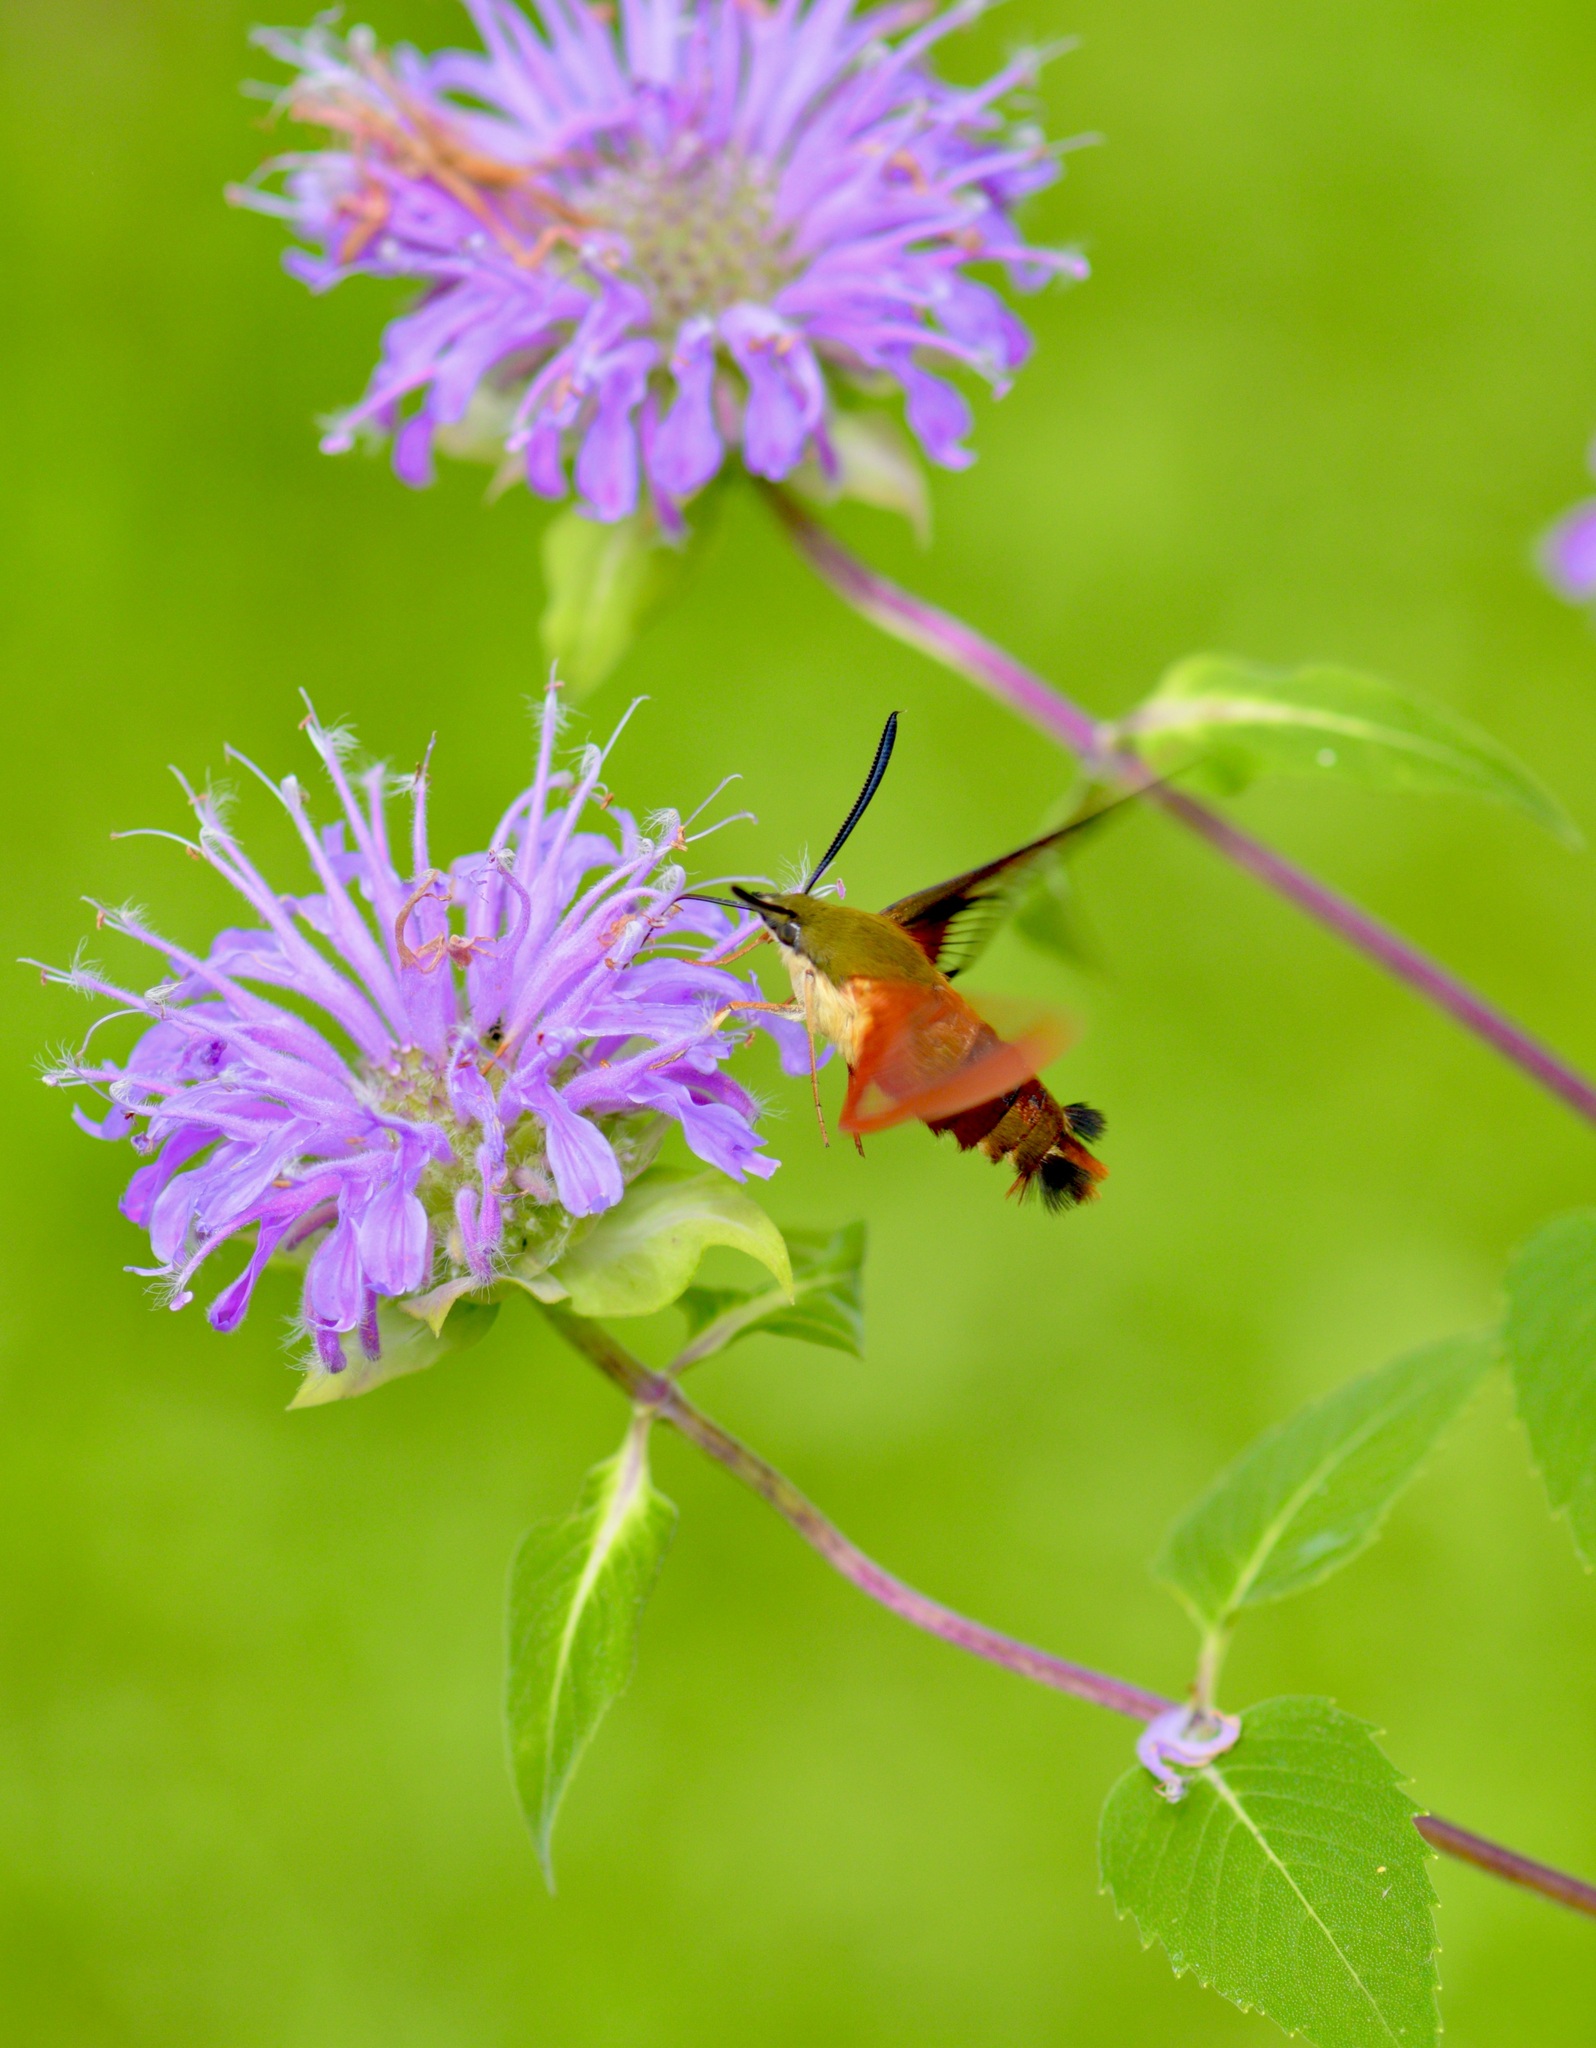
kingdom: Animalia
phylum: Arthropoda
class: Insecta
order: Lepidoptera
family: Sphingidae
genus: Hemaris
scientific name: Hemaris thysbe
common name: Common clear-wing
